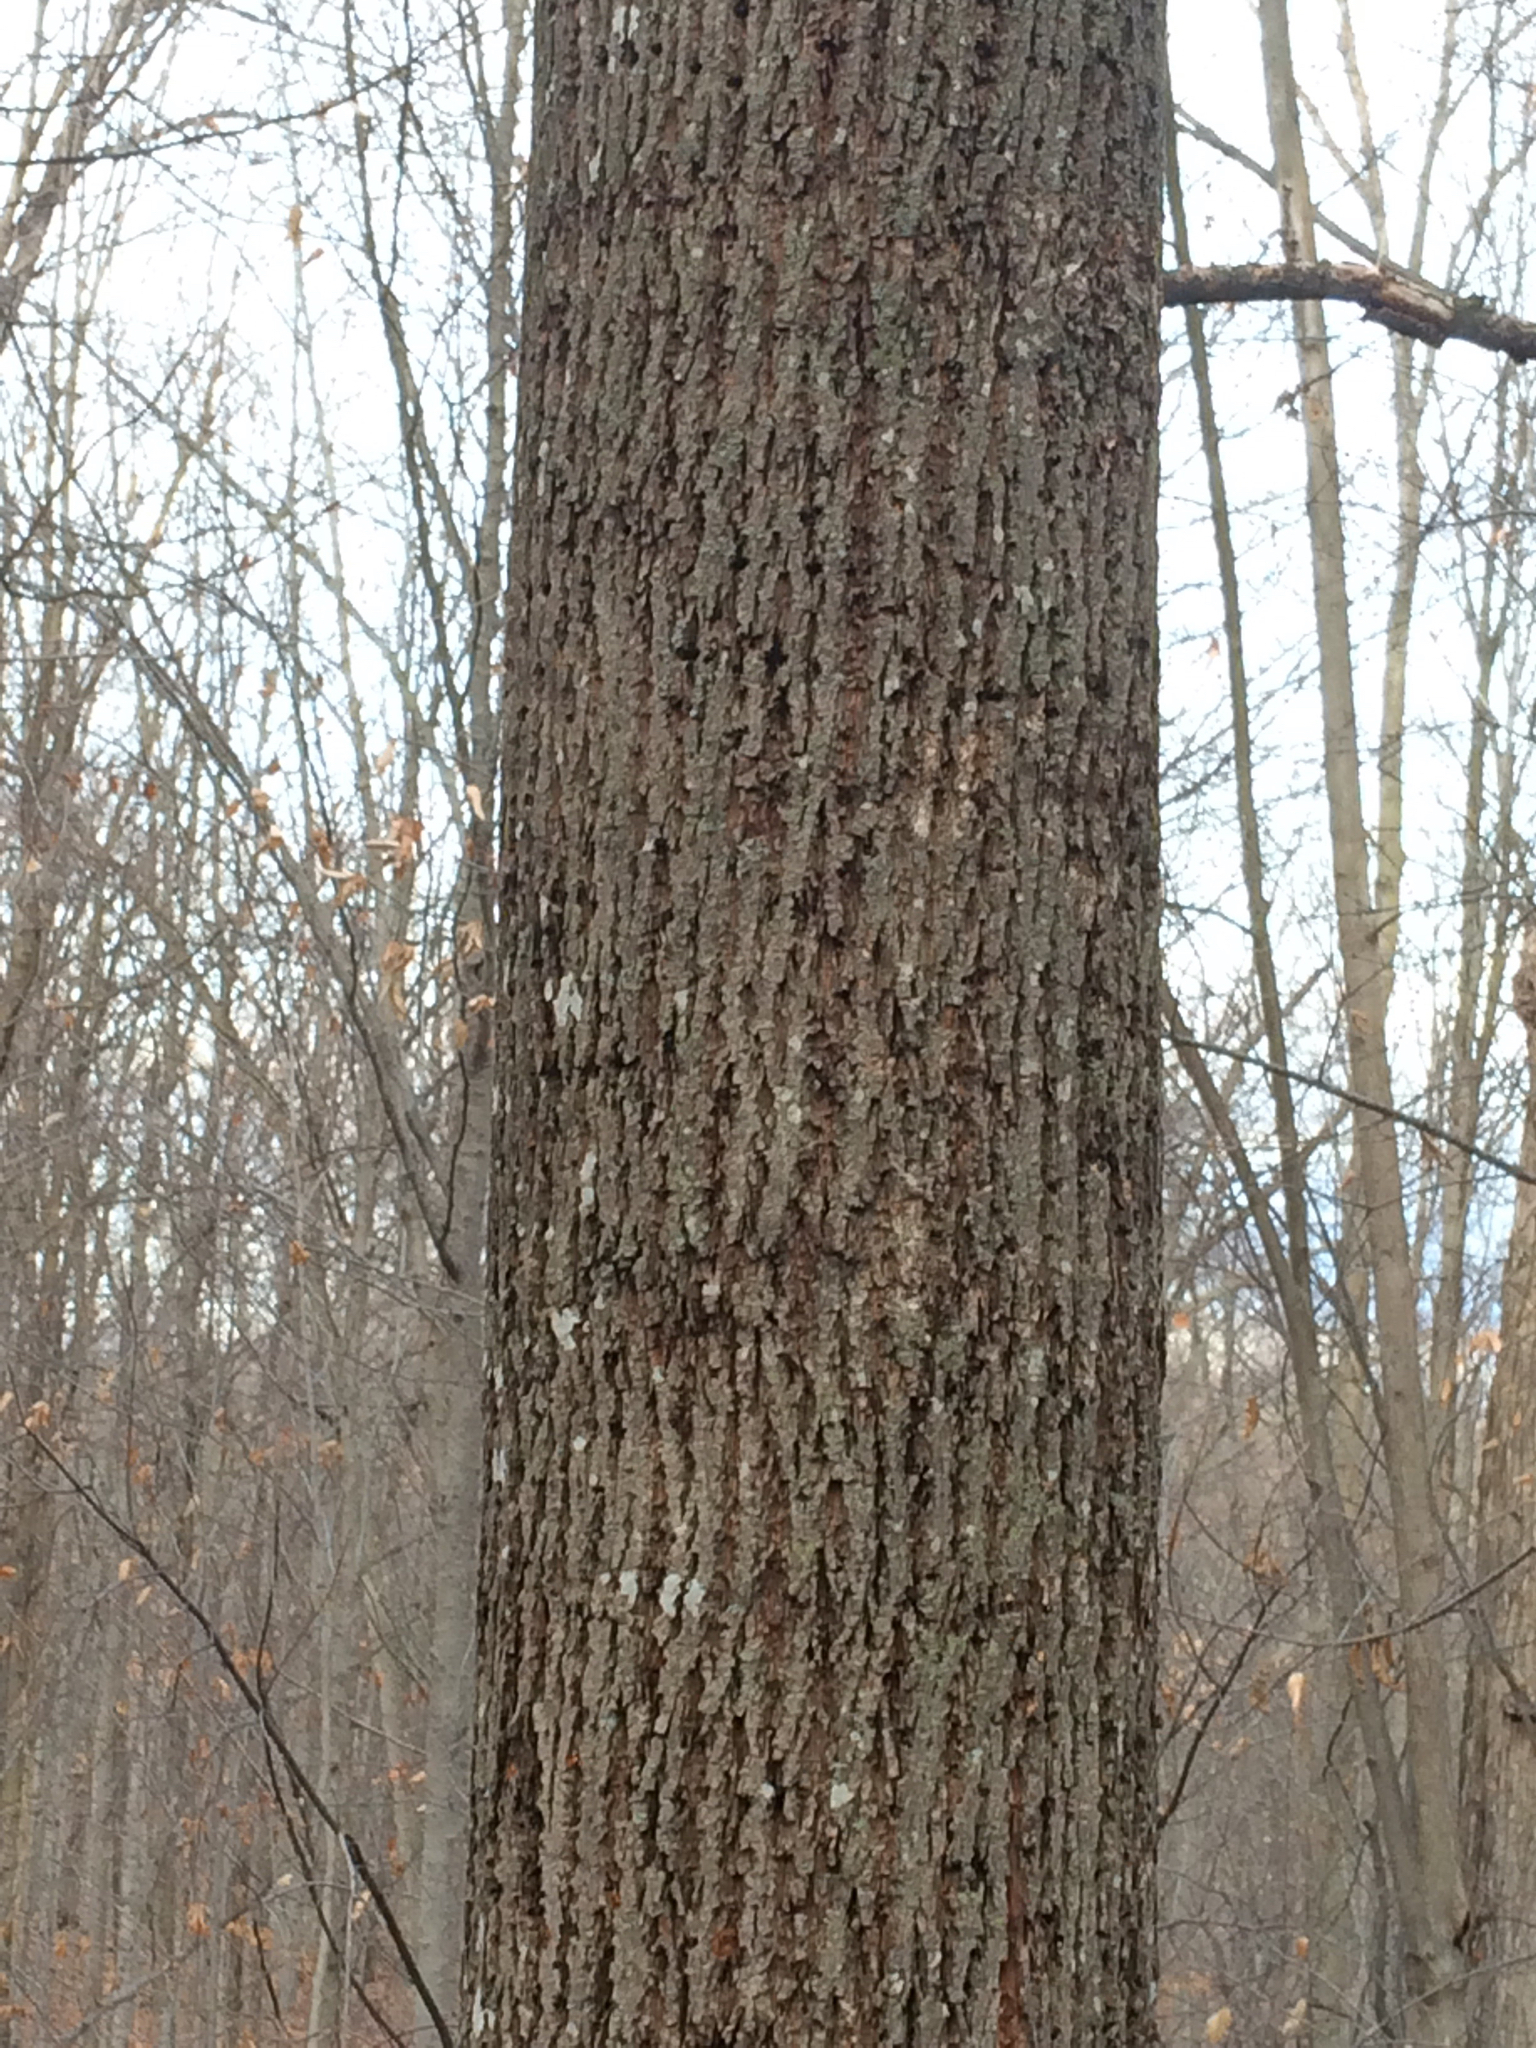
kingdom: Plantae
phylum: Tracheophyta
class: Magnoliopsida
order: Malvales
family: Malvaceae
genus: Tilia
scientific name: Tilia americana
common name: Basswood
